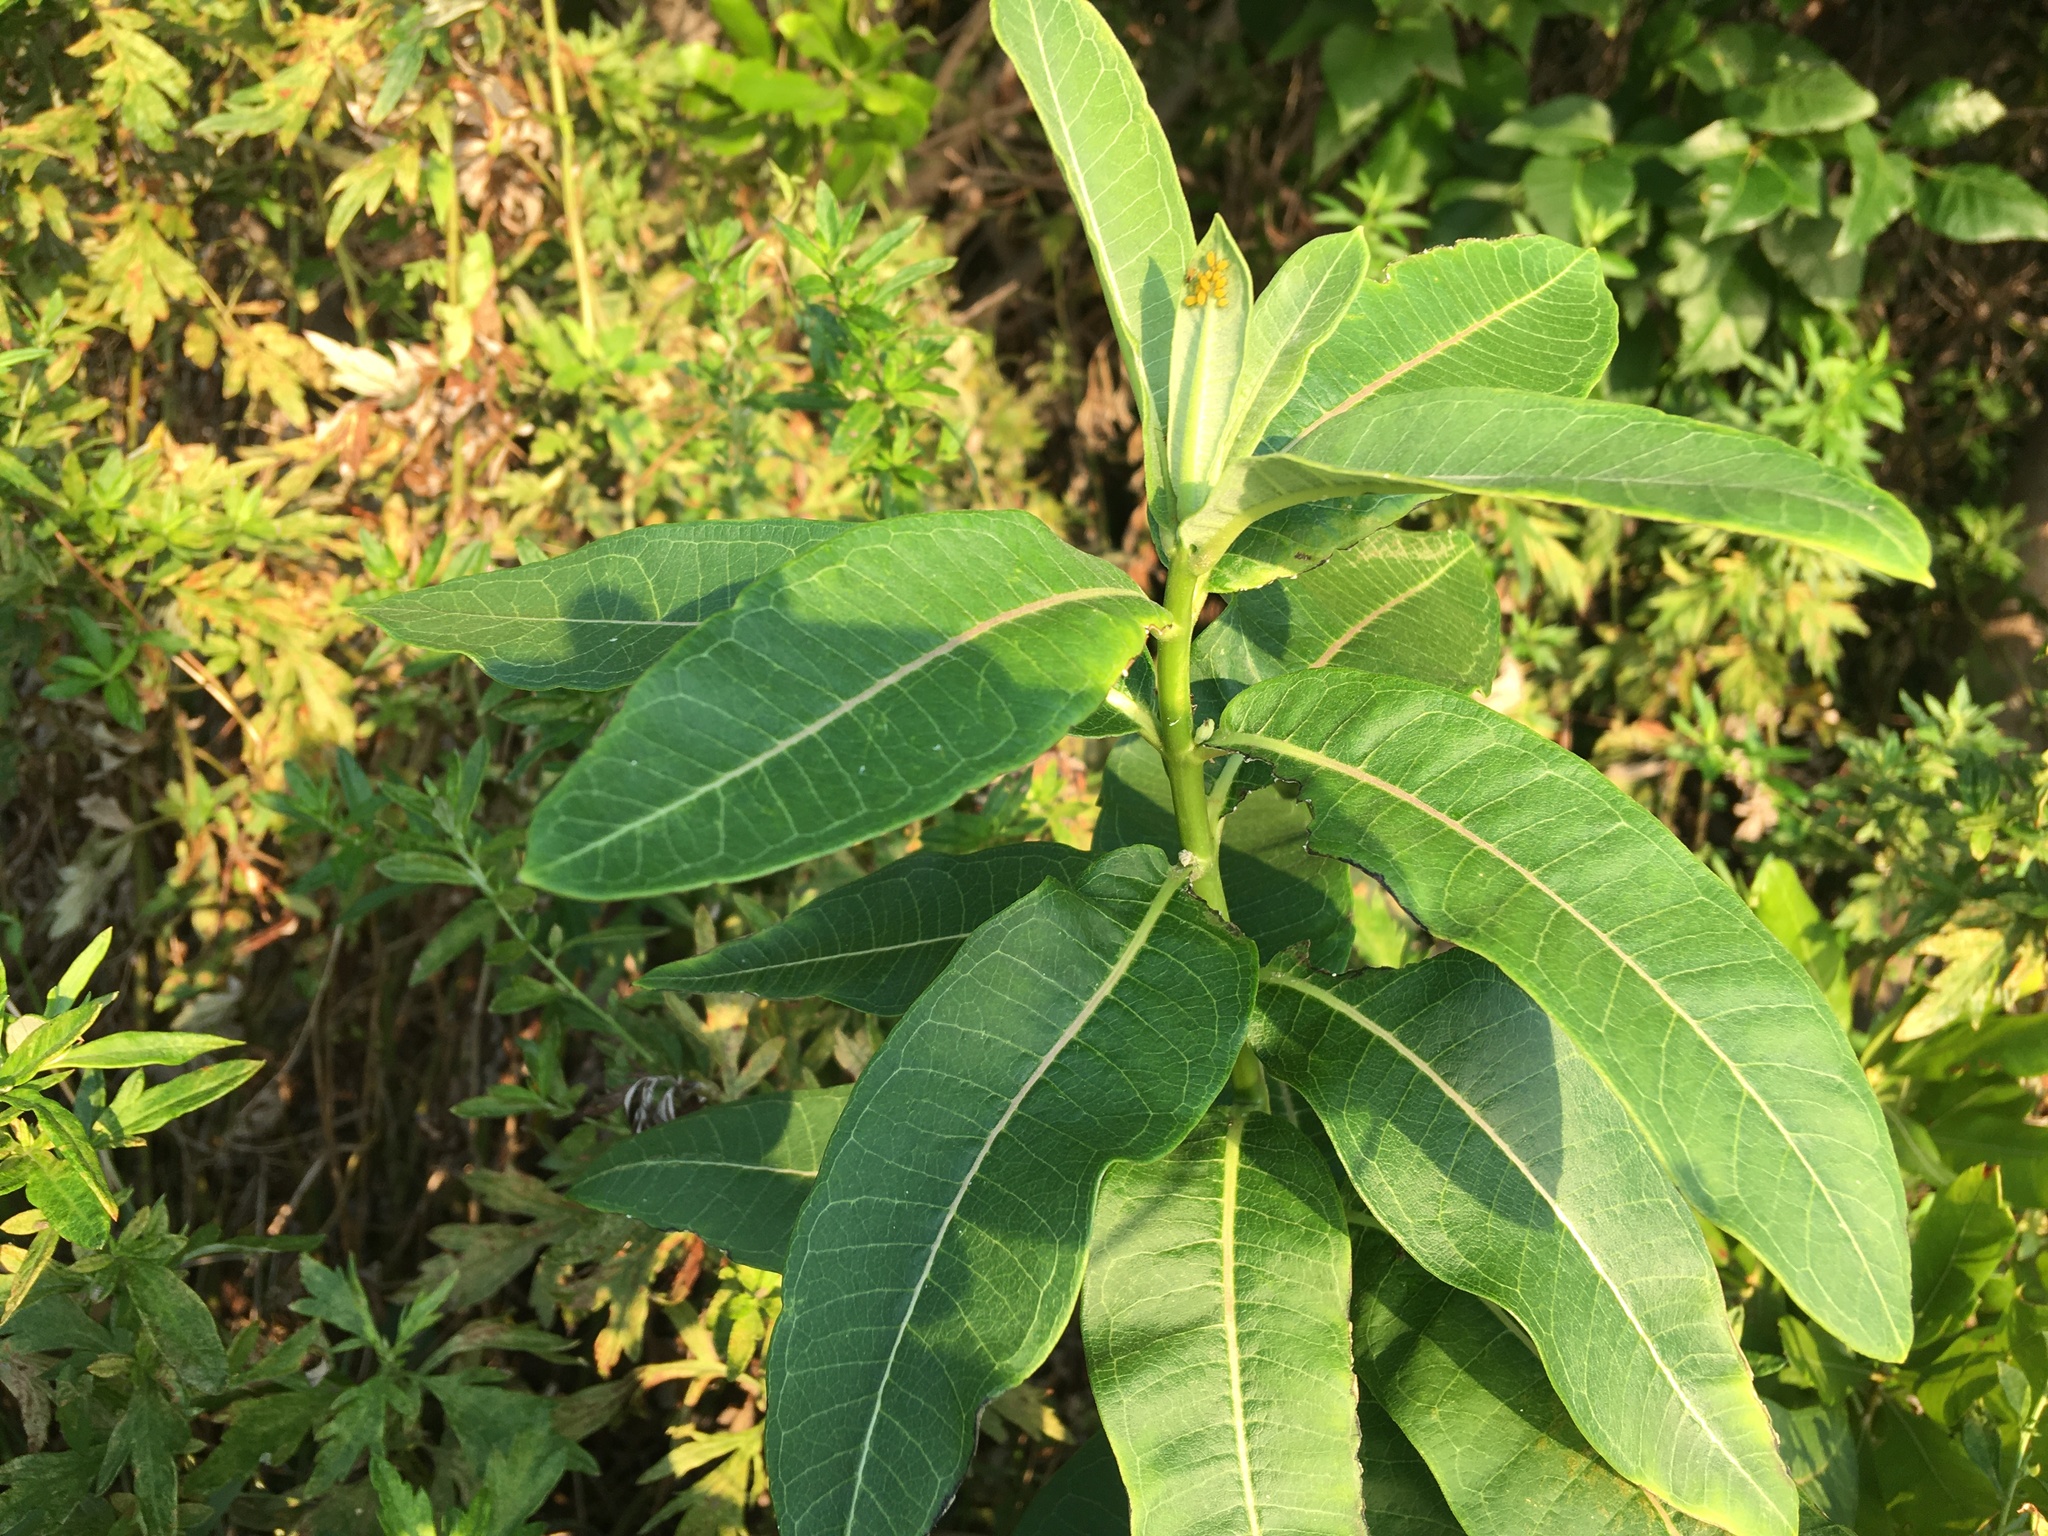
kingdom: Plantae
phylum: Tracheophyta
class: Magnoliopsida
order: Gentianales
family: Apocynaceae
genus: Asclepias
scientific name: Asclepias syriaca
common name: Common milkweed
